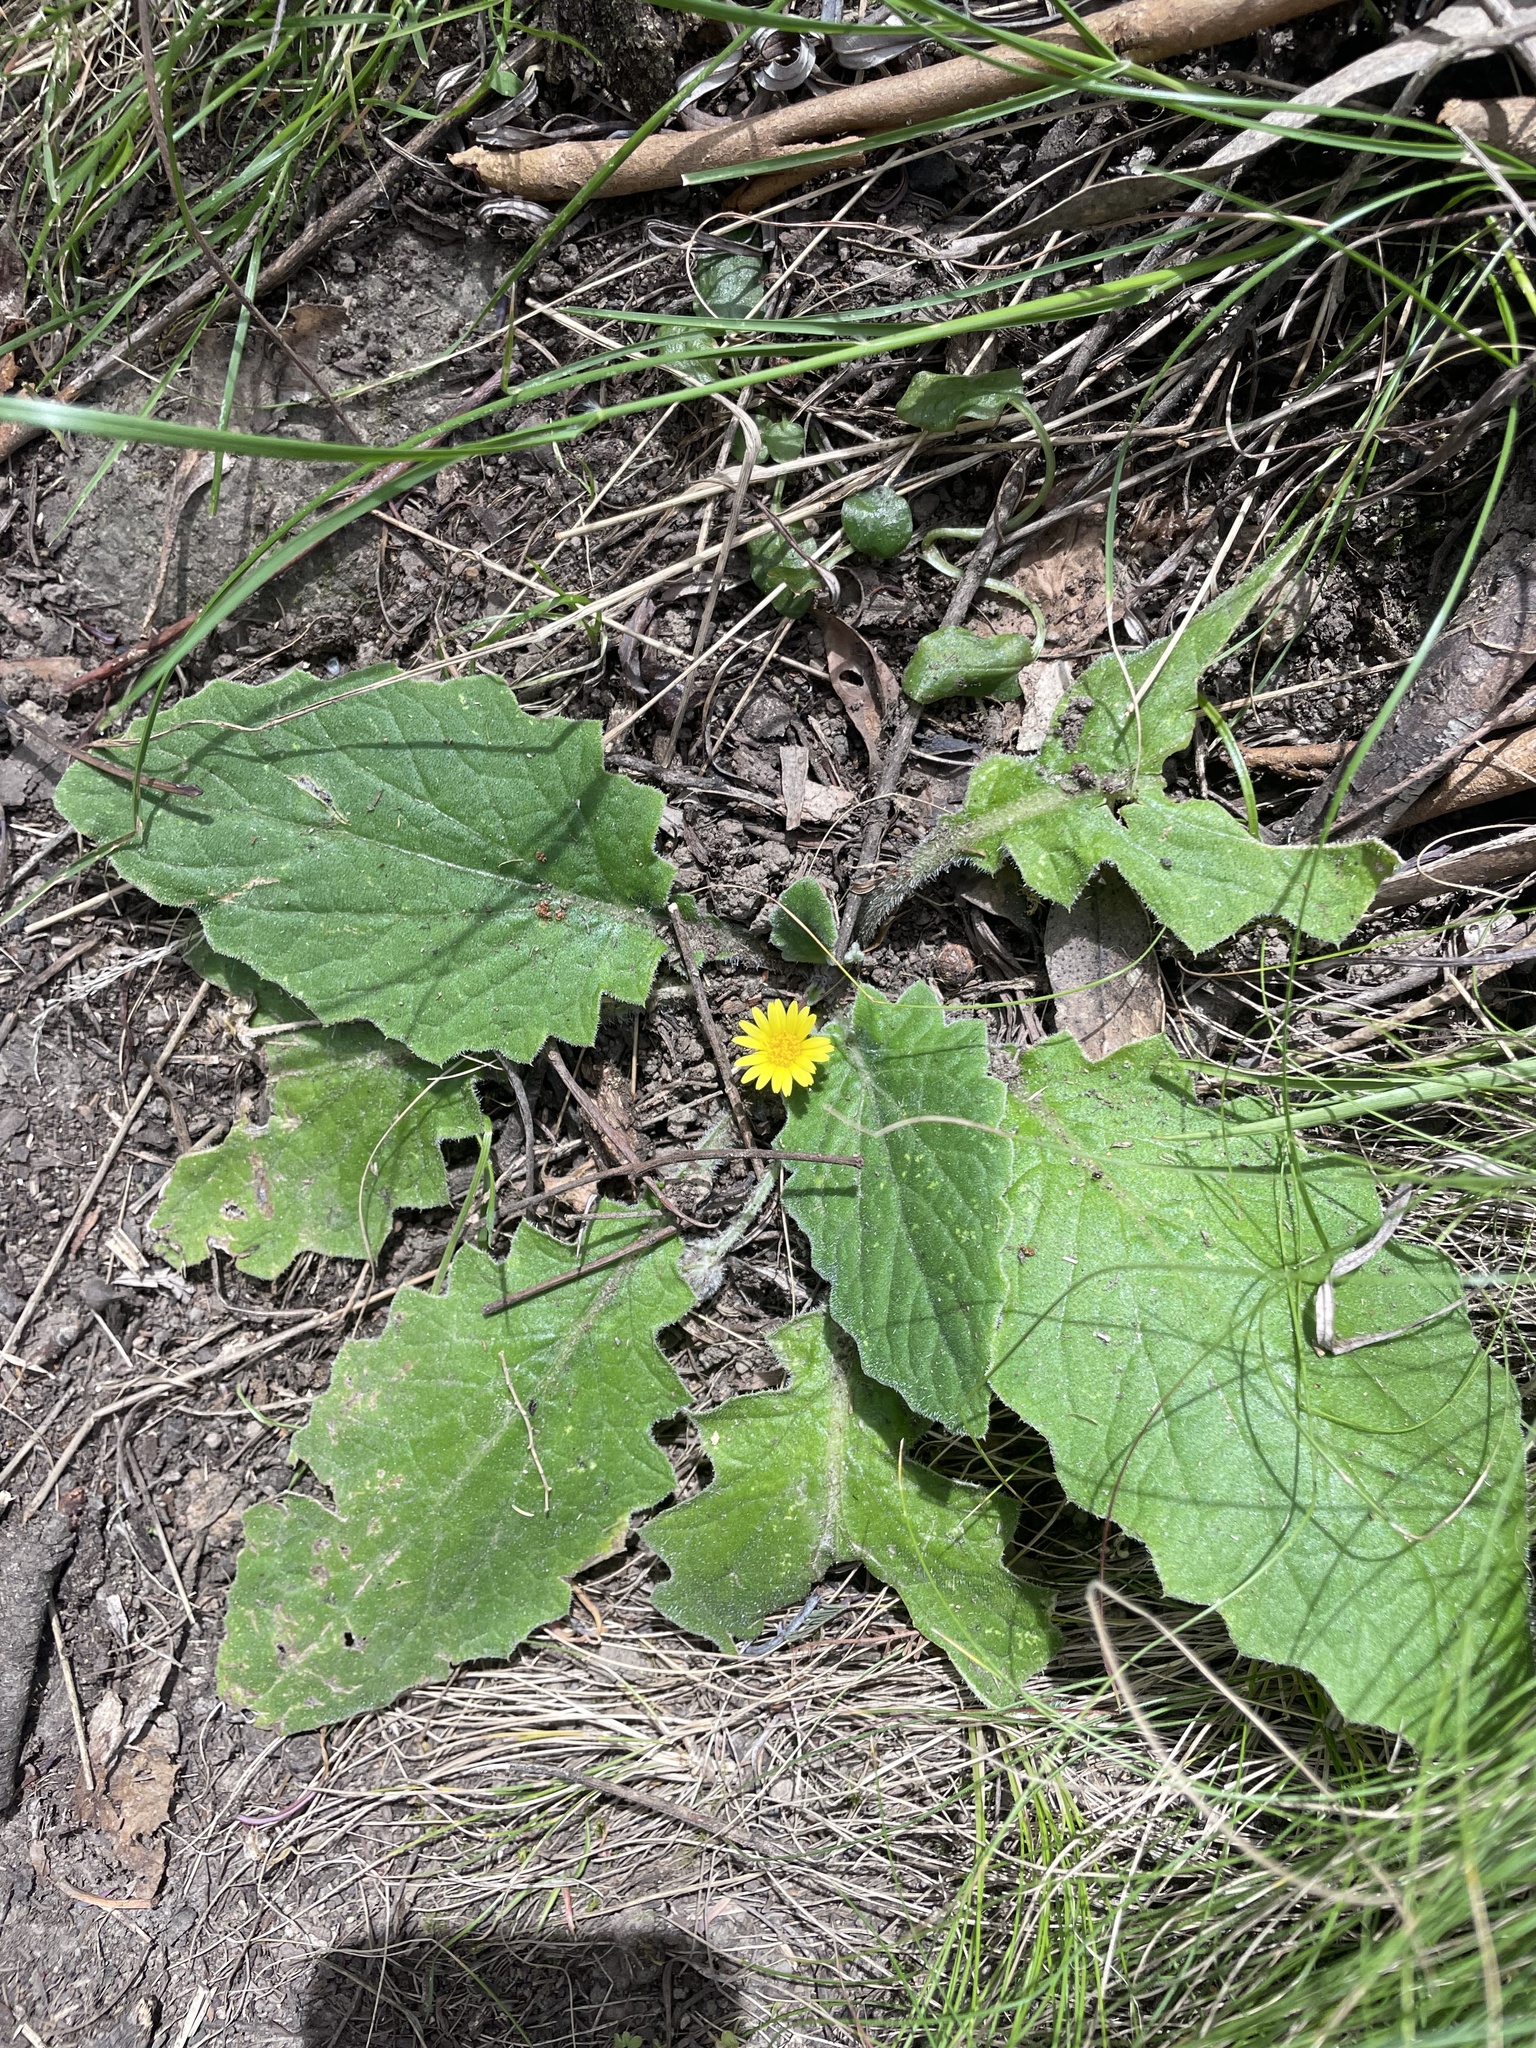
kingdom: Plantae
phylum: Tracheophyta
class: Magnoliopsida
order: Asterales
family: Asteraceae
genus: Cymbonotus
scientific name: Cymbonotus
